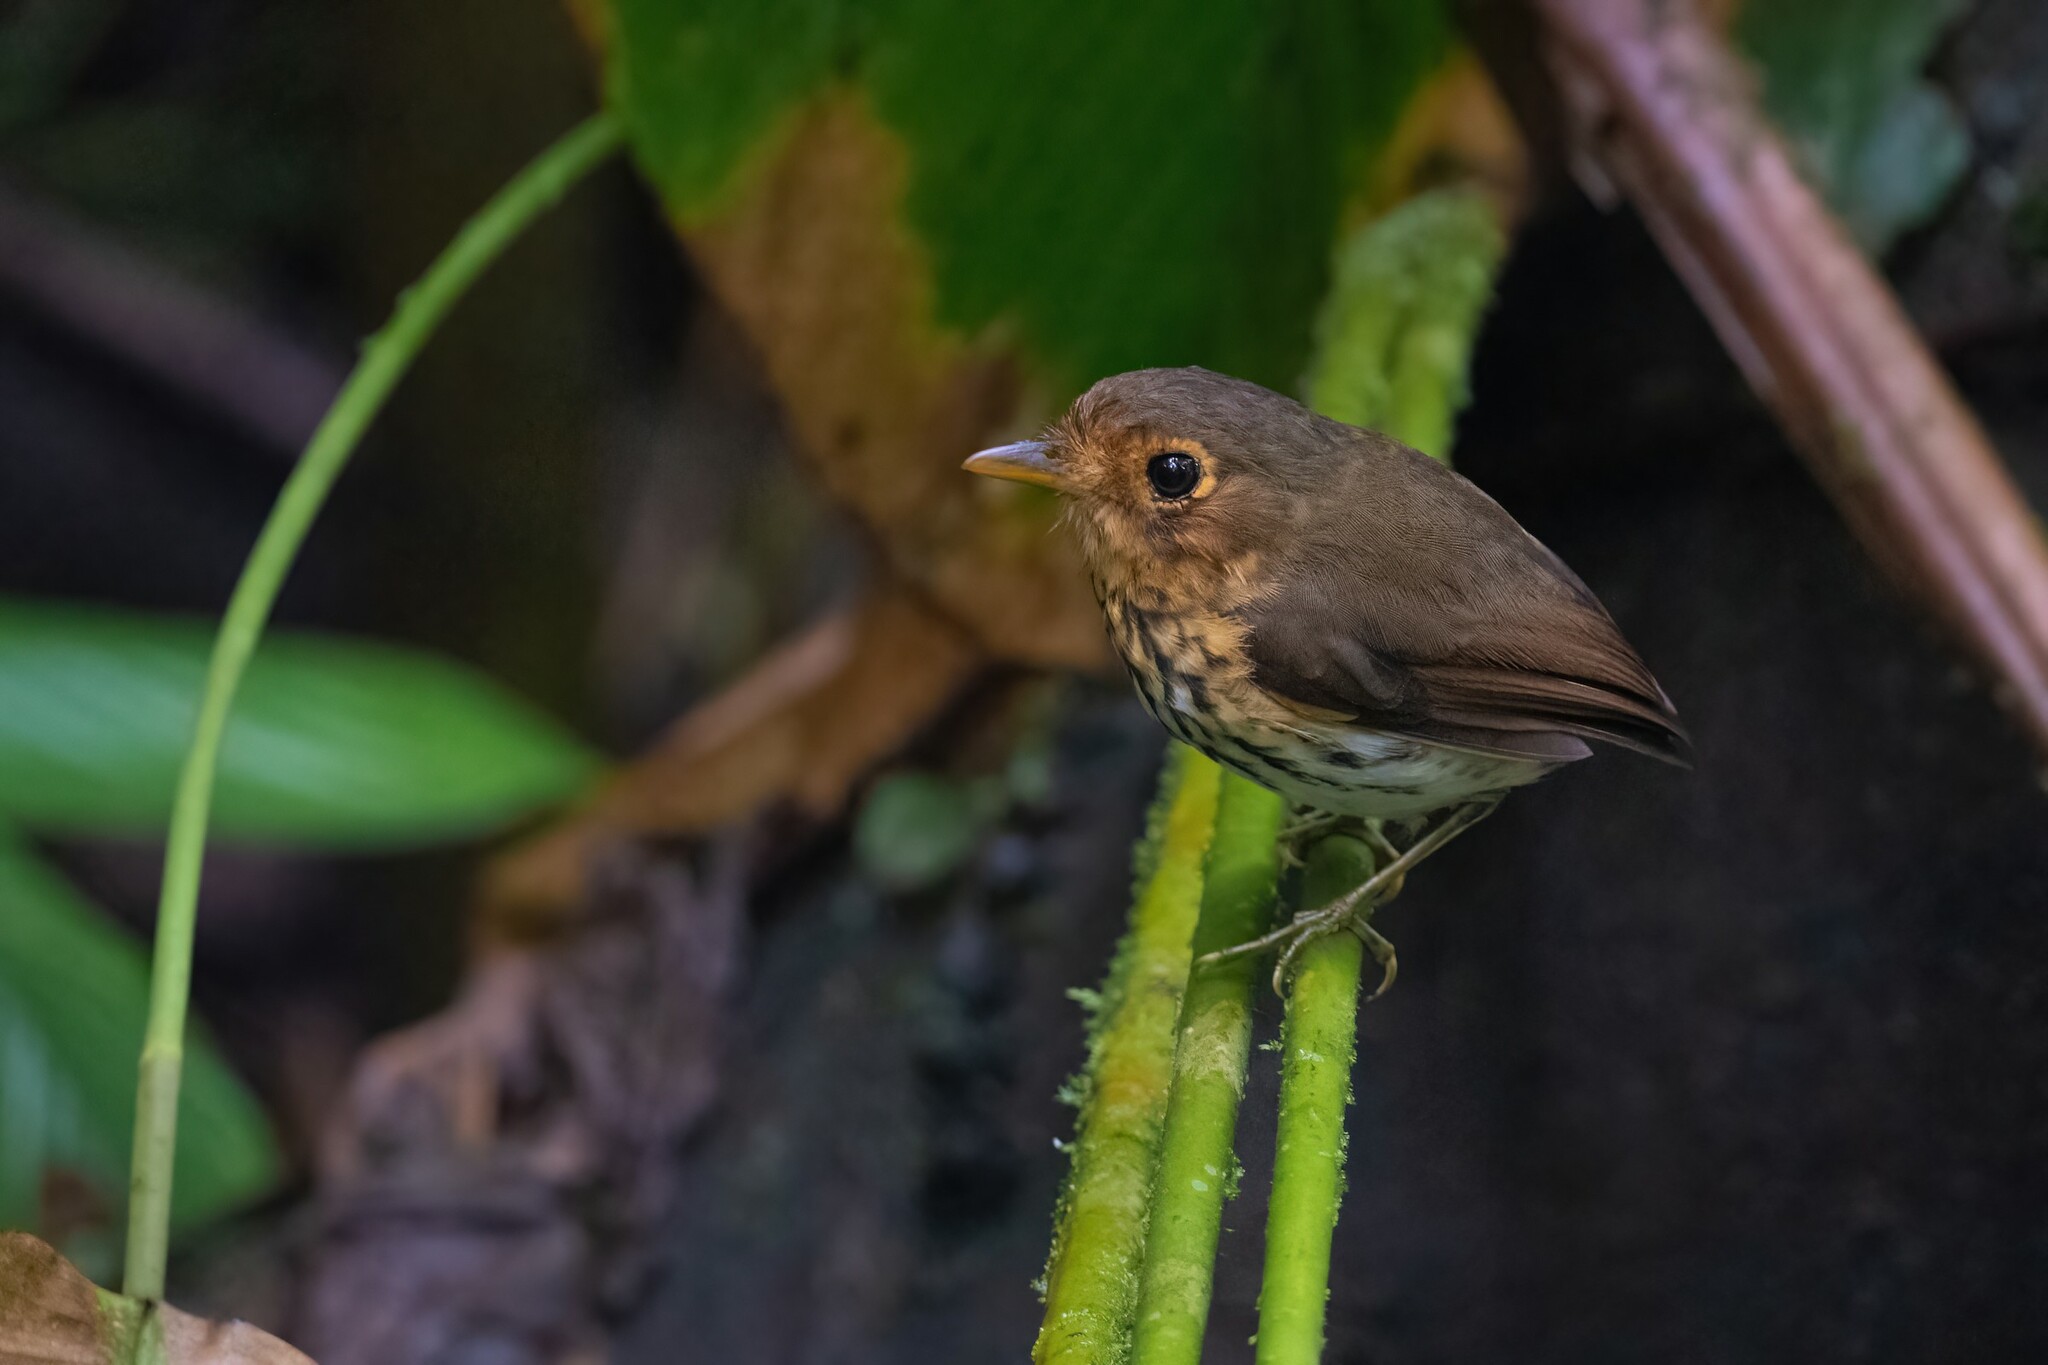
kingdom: Animalia
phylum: Chordata
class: Aves
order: Passeriformes
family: Grallariidae
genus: Grallaricula
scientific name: Grallaricula flavirostris
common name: Ochre-breasted antpitta
